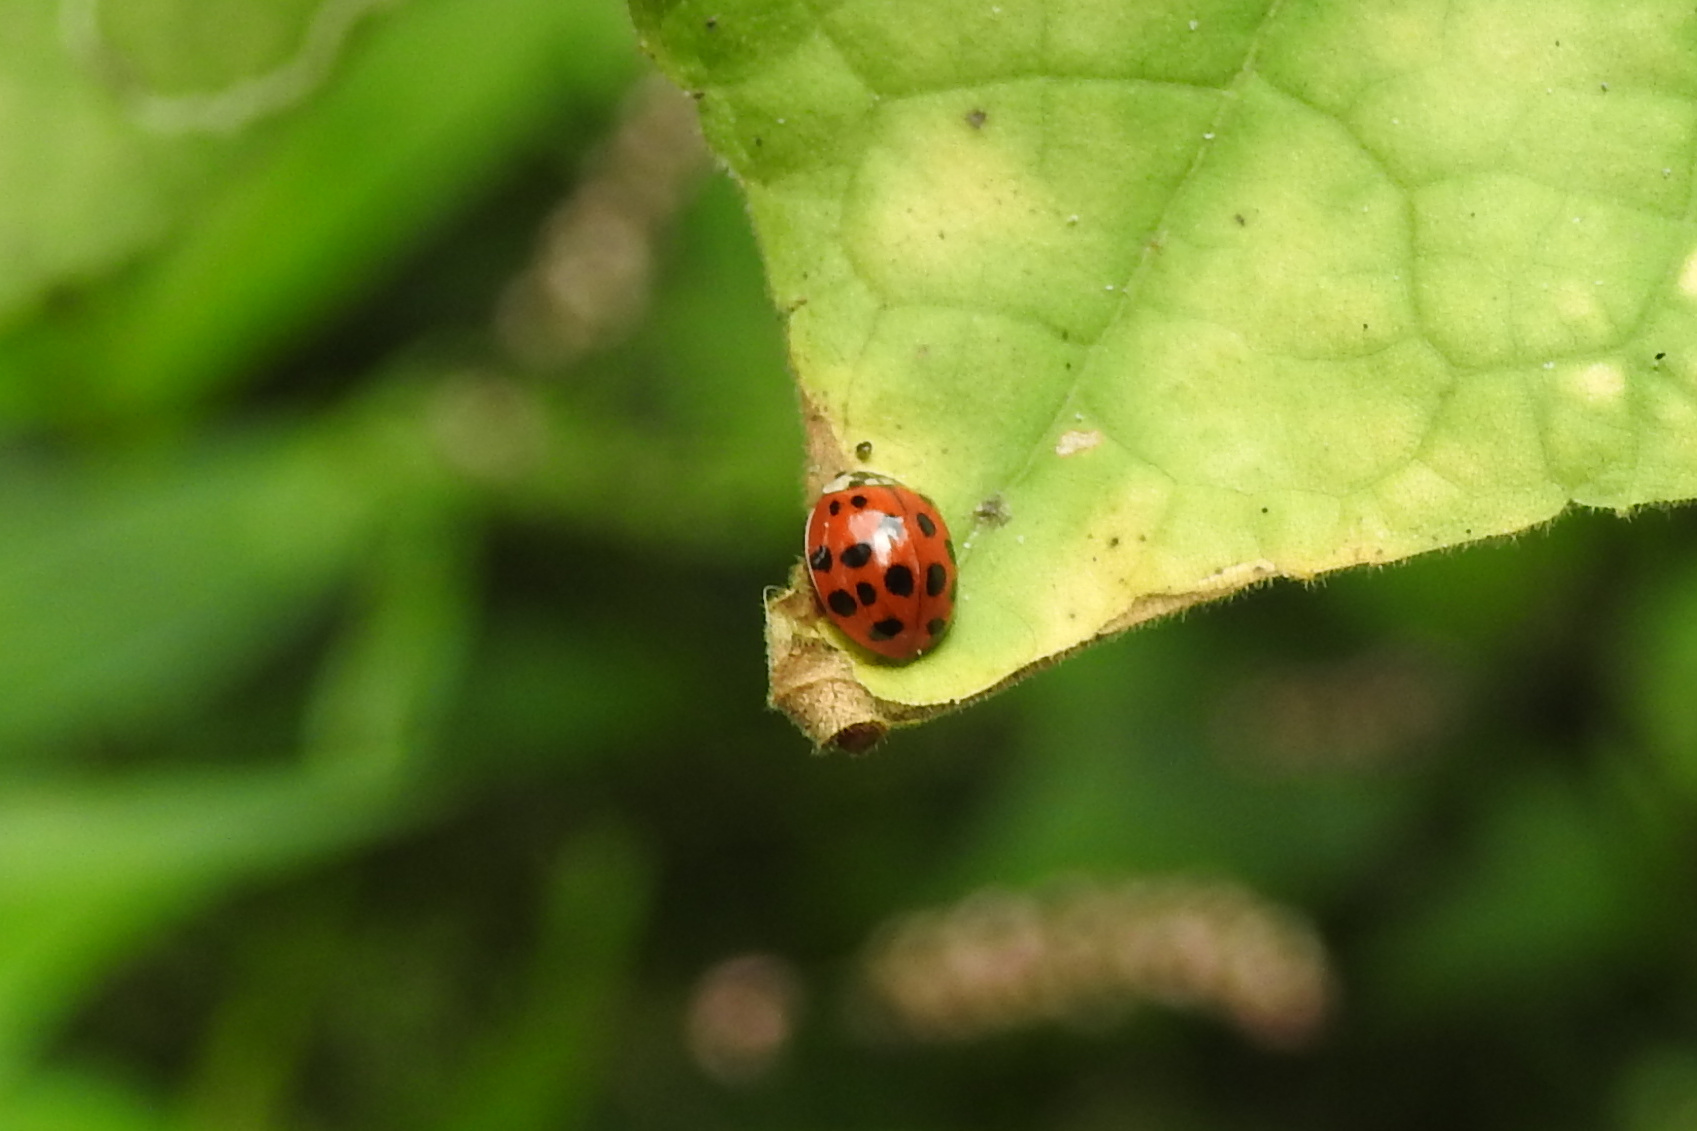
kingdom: Animalia
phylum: Arthropoda
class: Insecta
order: Coleoptera
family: Coccinellidae
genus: Harmonia
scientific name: Harmonia axyridis
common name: Harlequin ladybird
